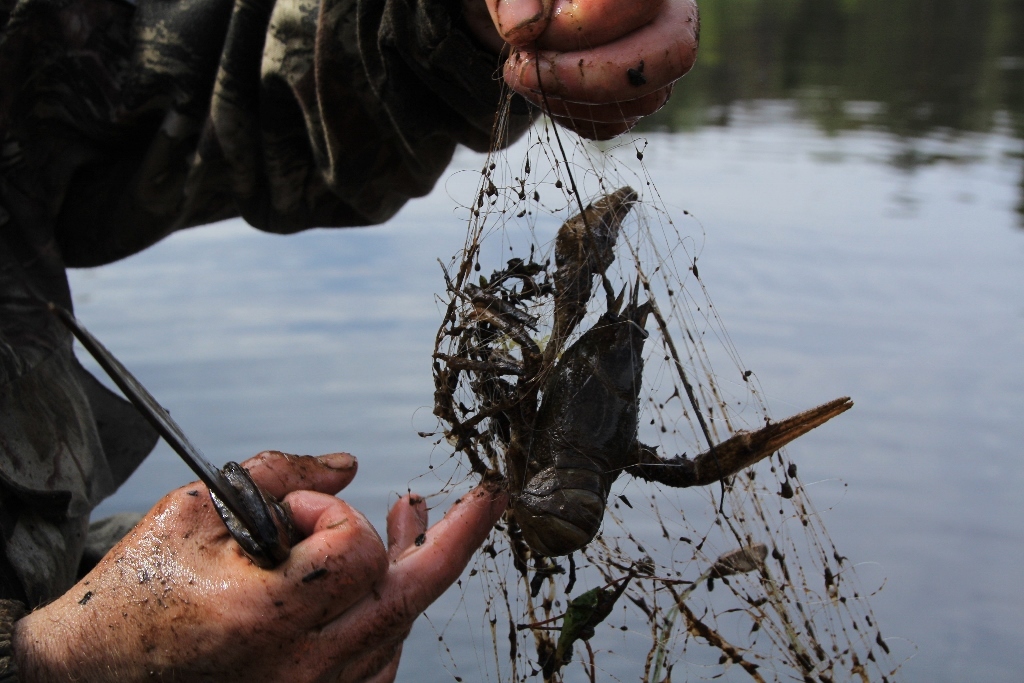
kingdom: Animalia
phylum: Arthropoda
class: Malacostraca
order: Decapoda
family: Astacidae
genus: Pontastacus
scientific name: Pontastacus leptodactylus
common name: Danube crayfish
